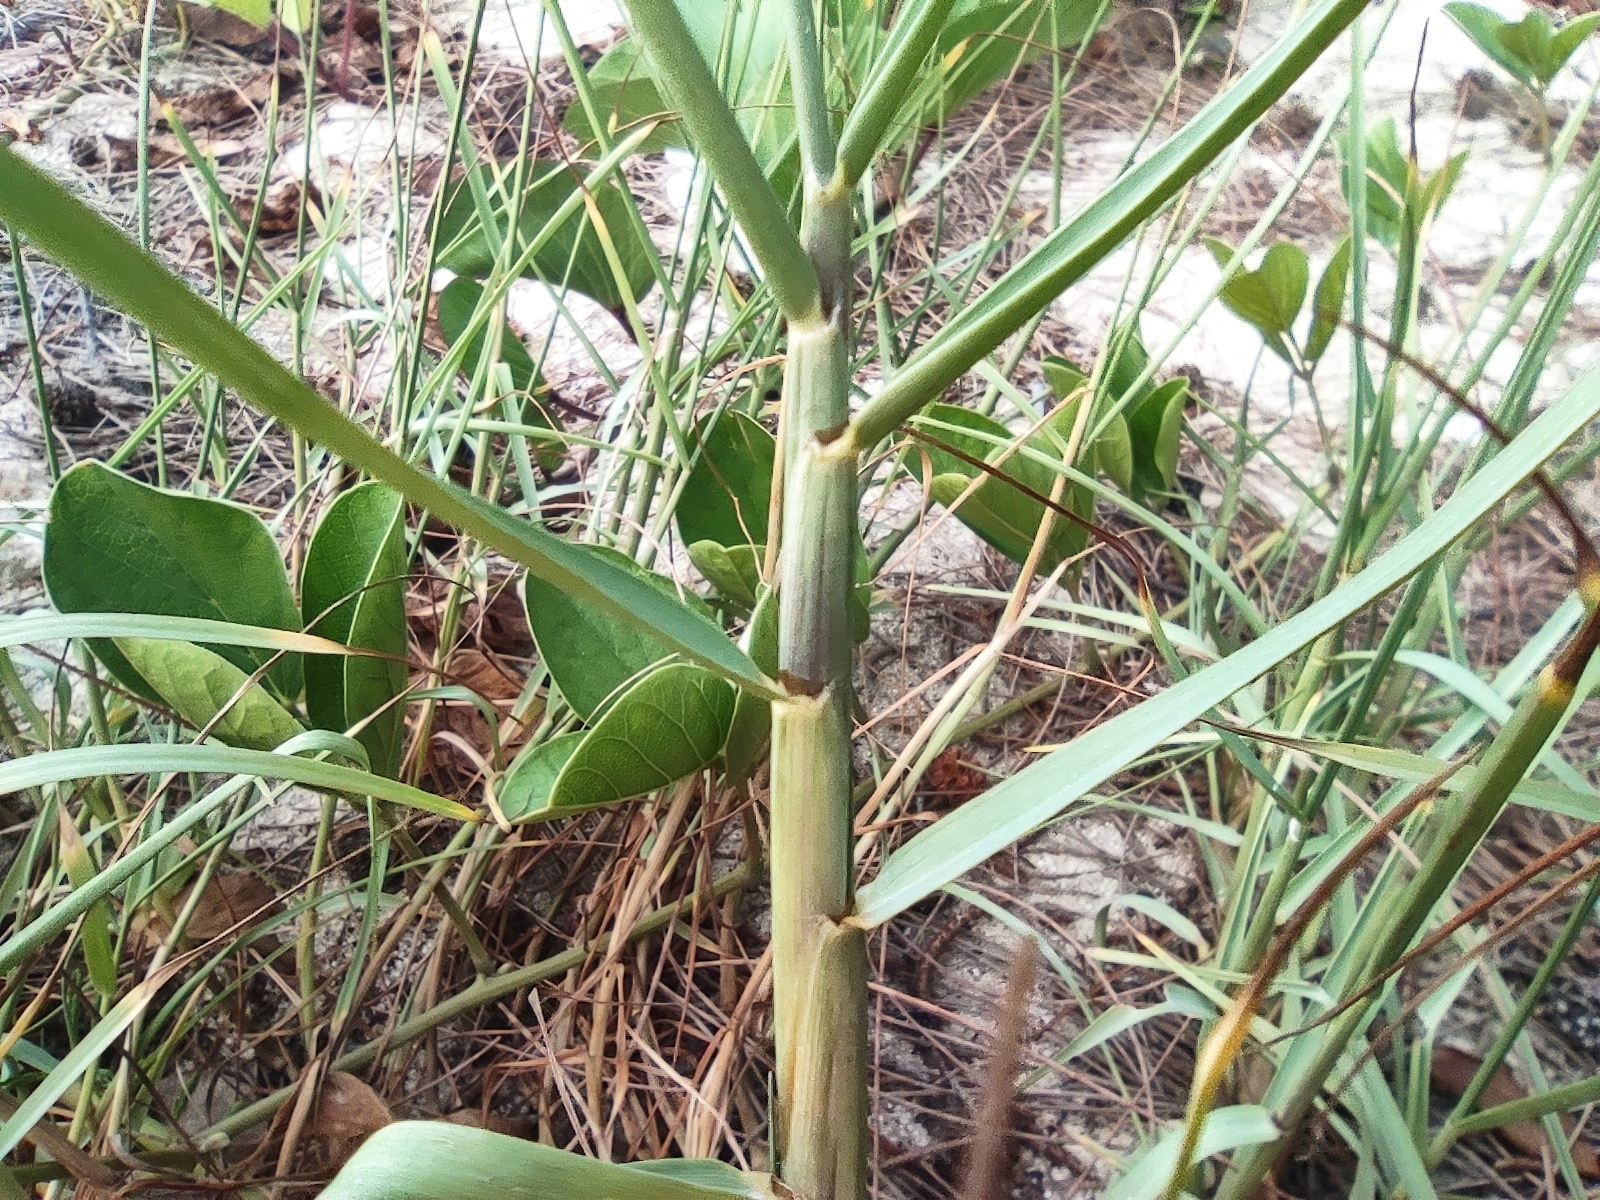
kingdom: Plantae
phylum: Tracheophyta
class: Liliopsida
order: Poales
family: Poaceae
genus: Paspalum
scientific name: Paspalum vaginatum
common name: Seashore paspalum
